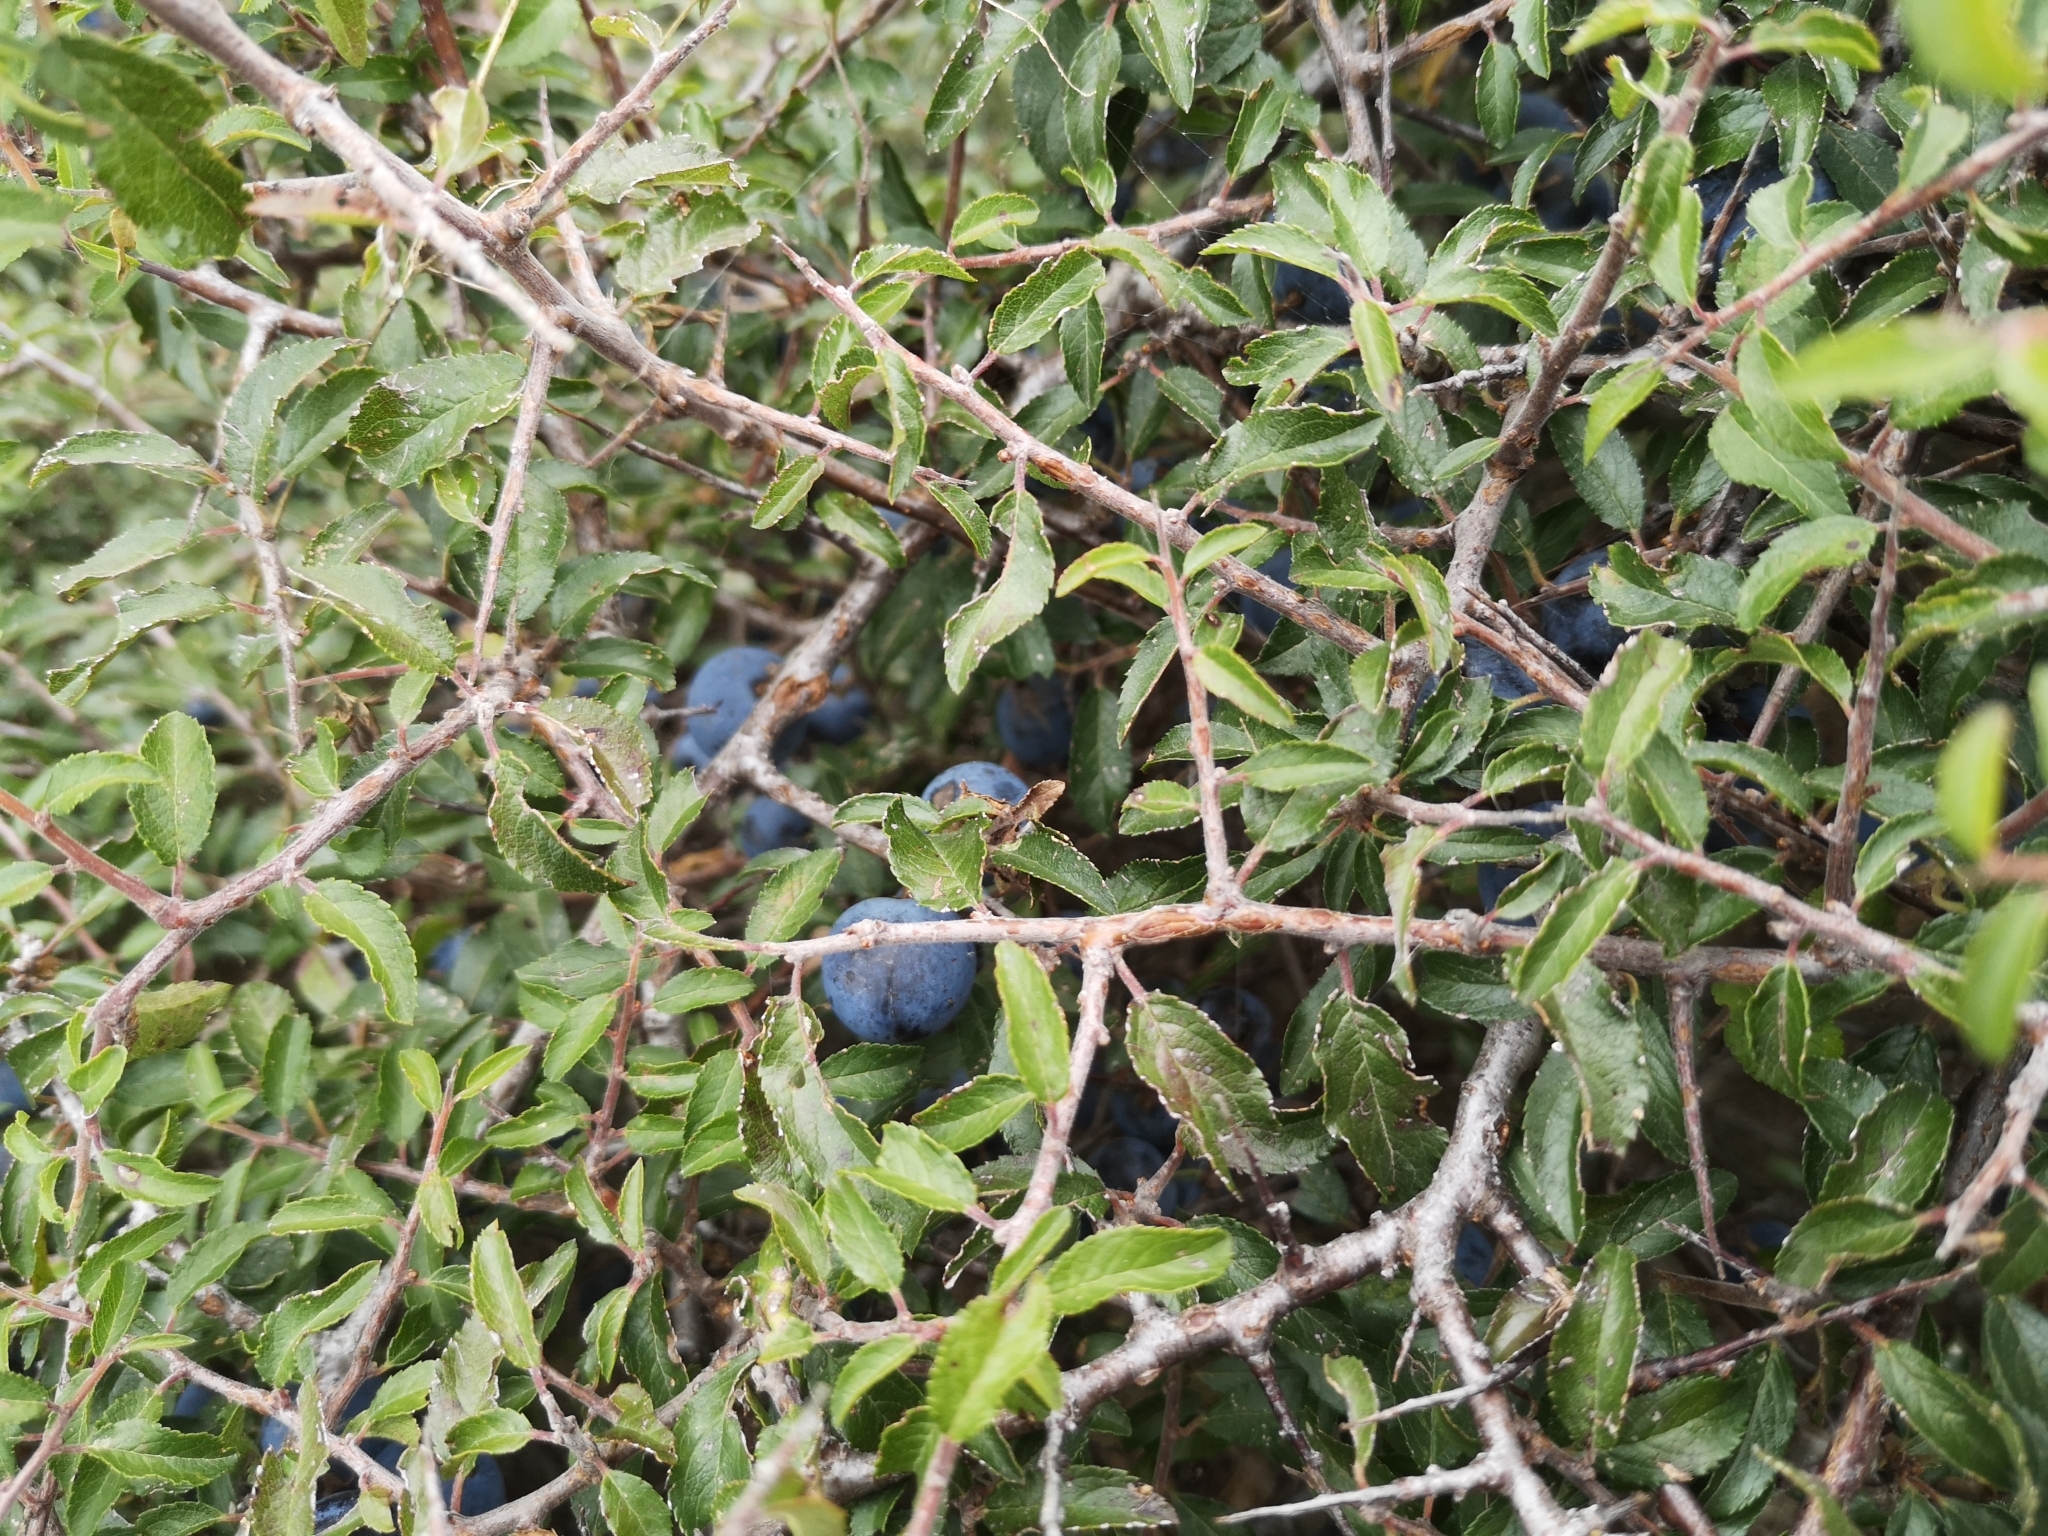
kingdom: Plantae
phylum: Tracheophyta
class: Magnoliopsida
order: Rosales
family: Rosaceae
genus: Prunus
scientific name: Prunus spinosa
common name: Blackthorn
